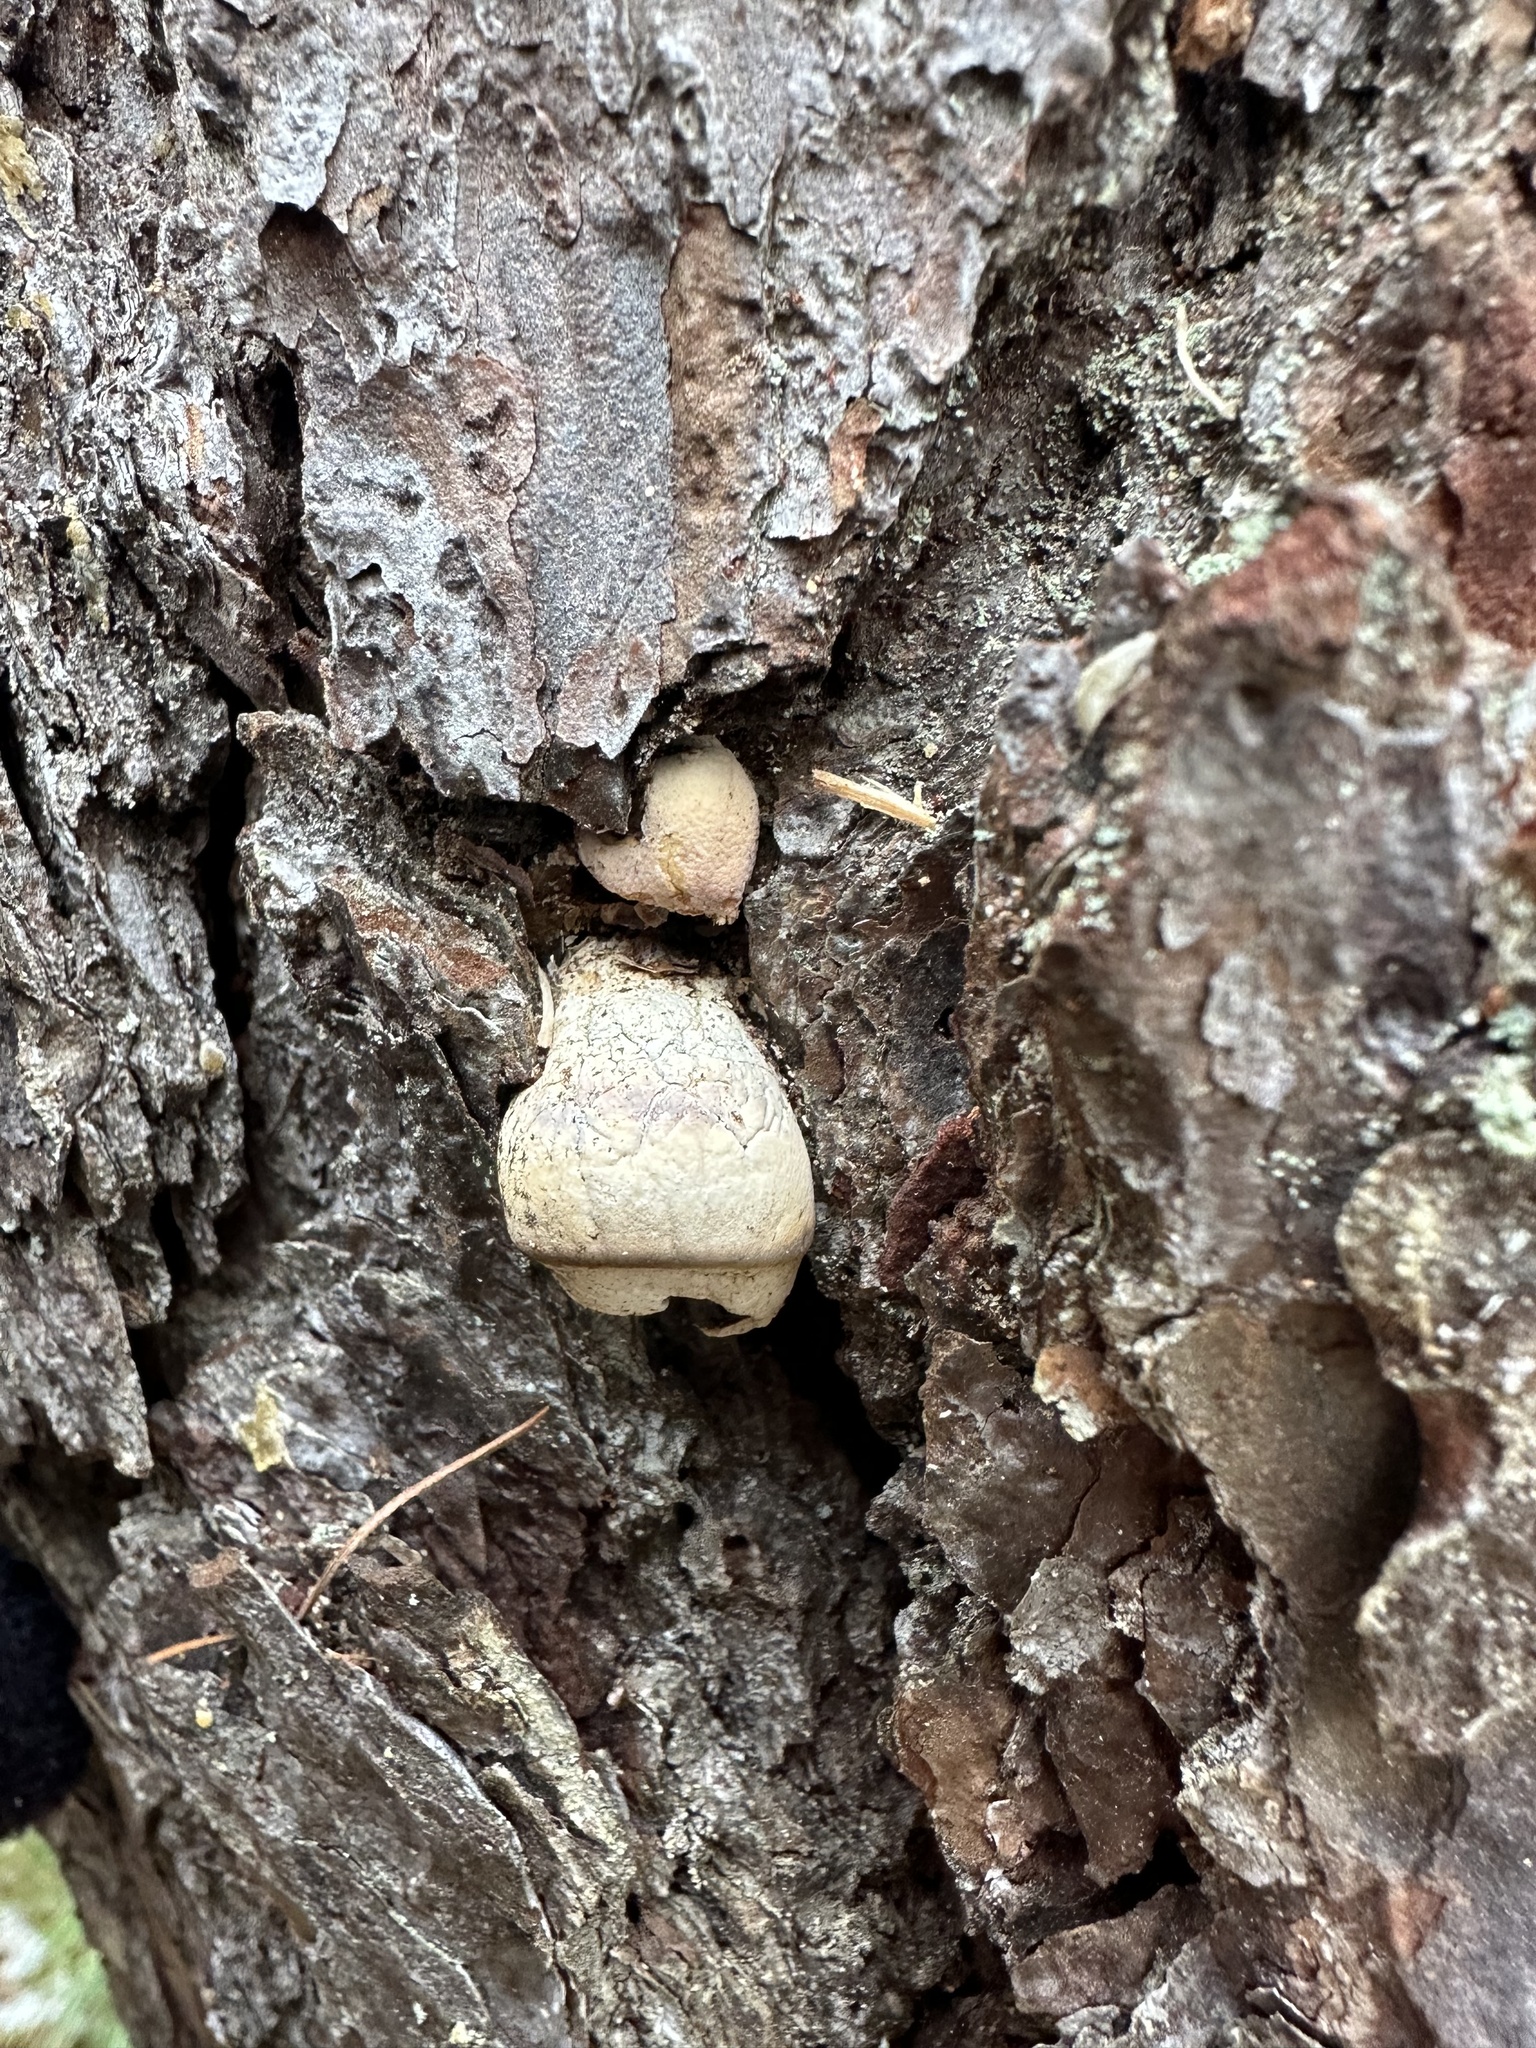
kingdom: Fungi
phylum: Basidiomycota
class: Agaricomycetes
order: Polyporales
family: Polyporaceae
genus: Cryptoporus
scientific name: Cryptoporus volvatus
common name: Veiled polypore
